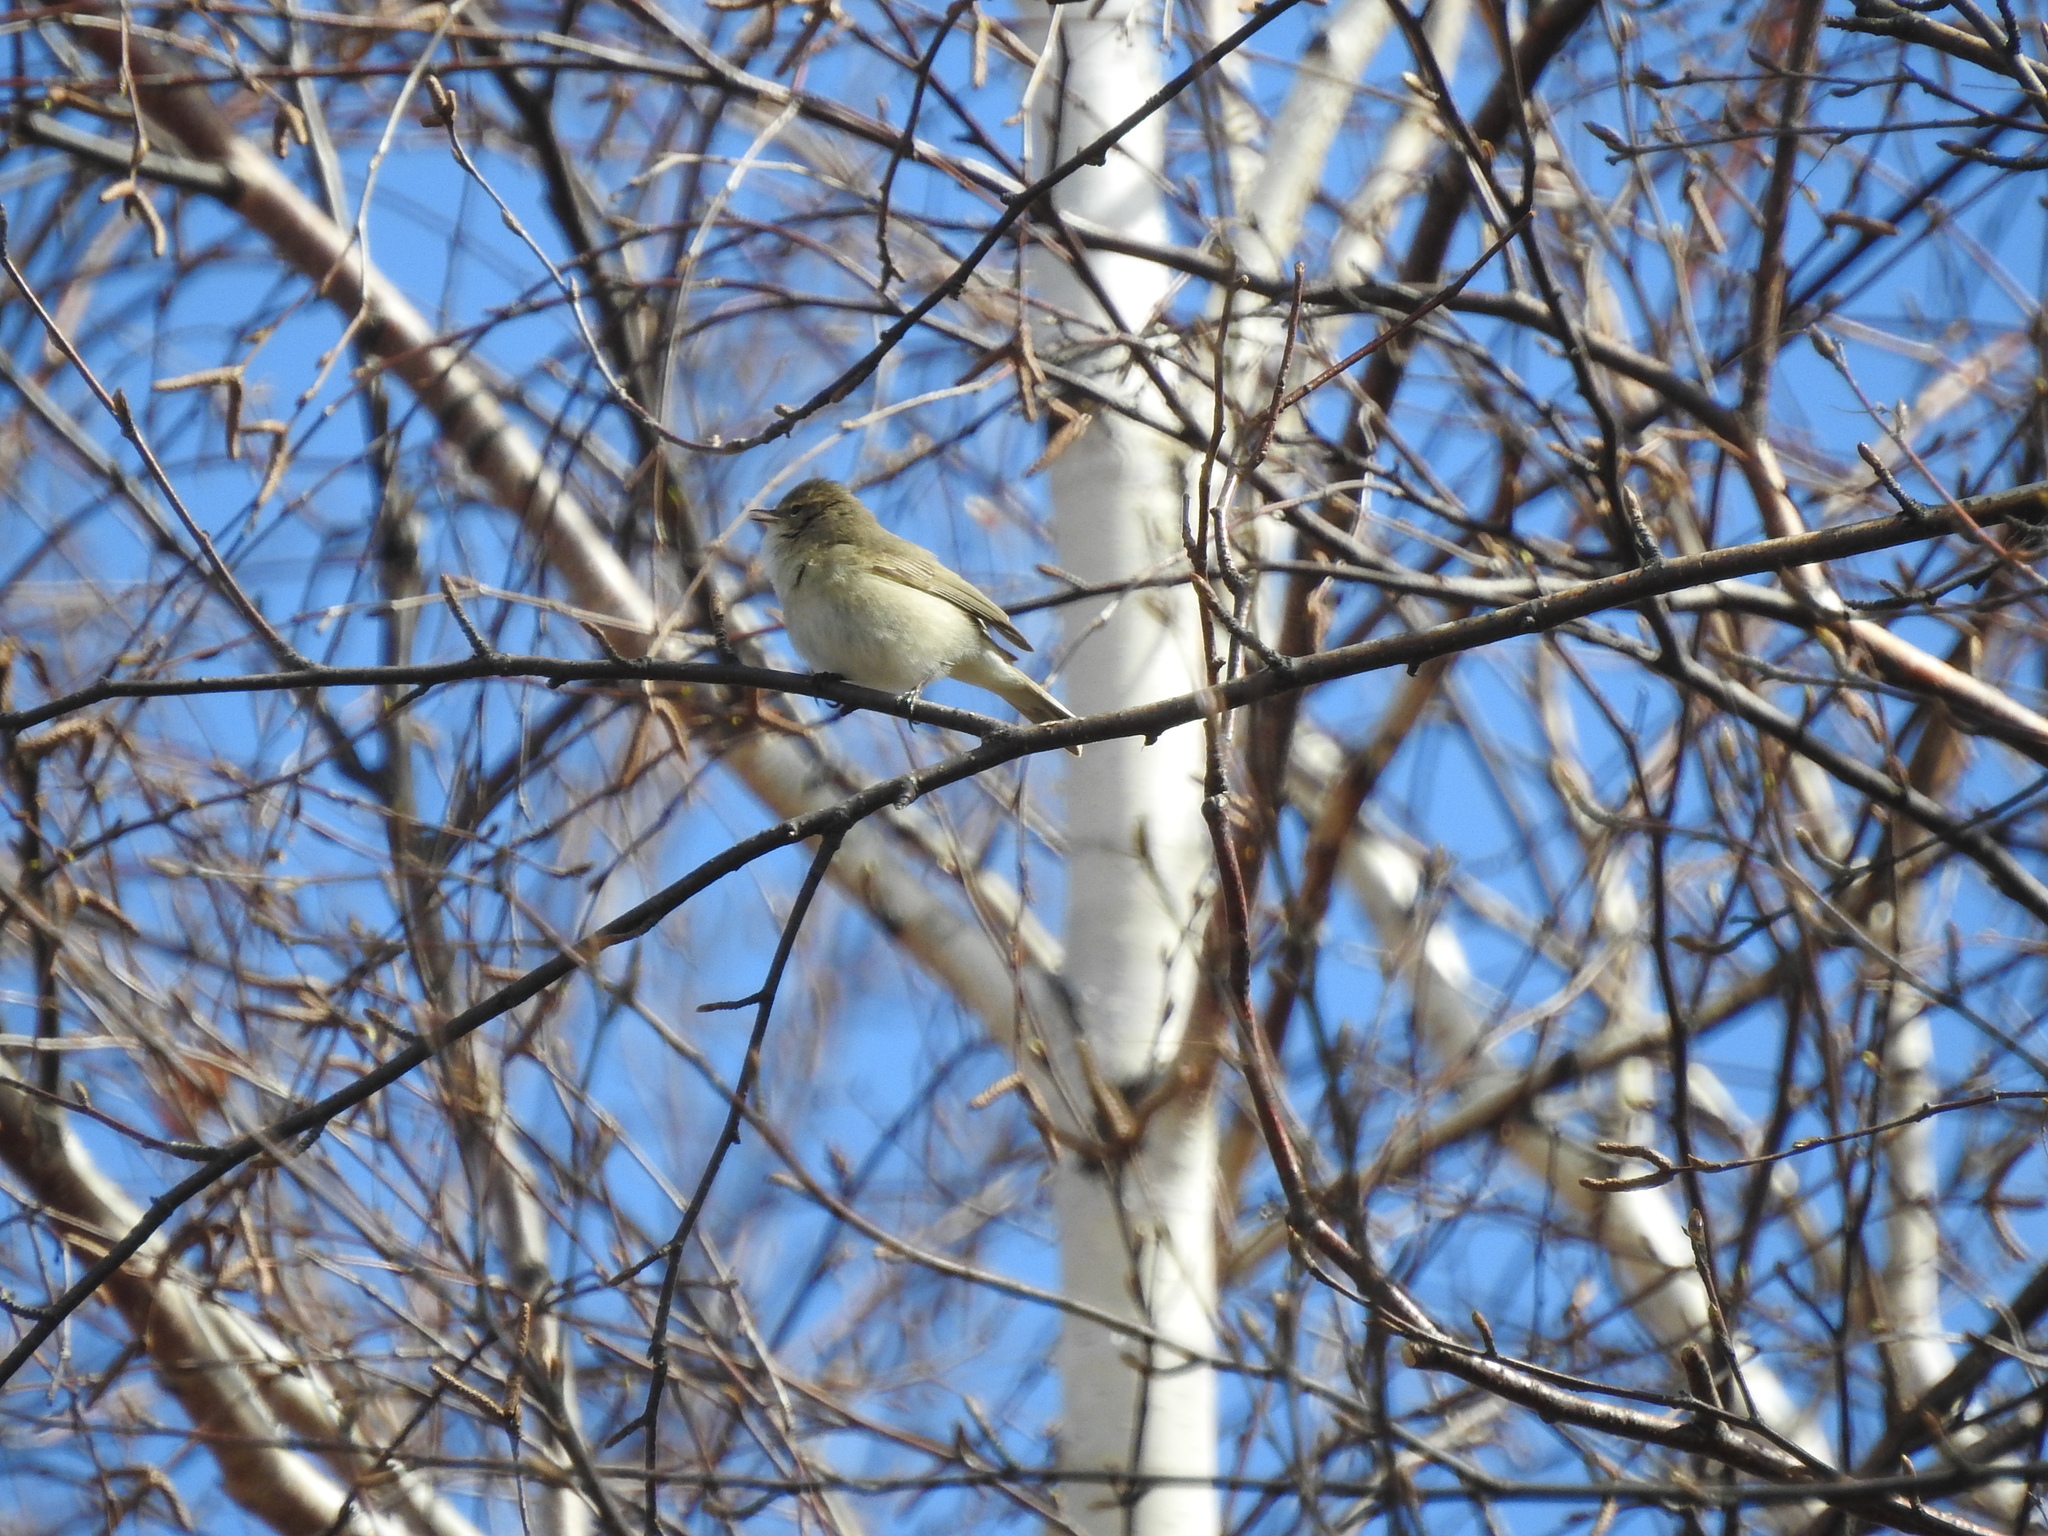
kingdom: Animalia
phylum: Chordata
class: Aves
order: Passeriformes
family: Phylloscopidae
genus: Phylloscopus
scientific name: Phylloscopus collybita
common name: Common chiffchaff
